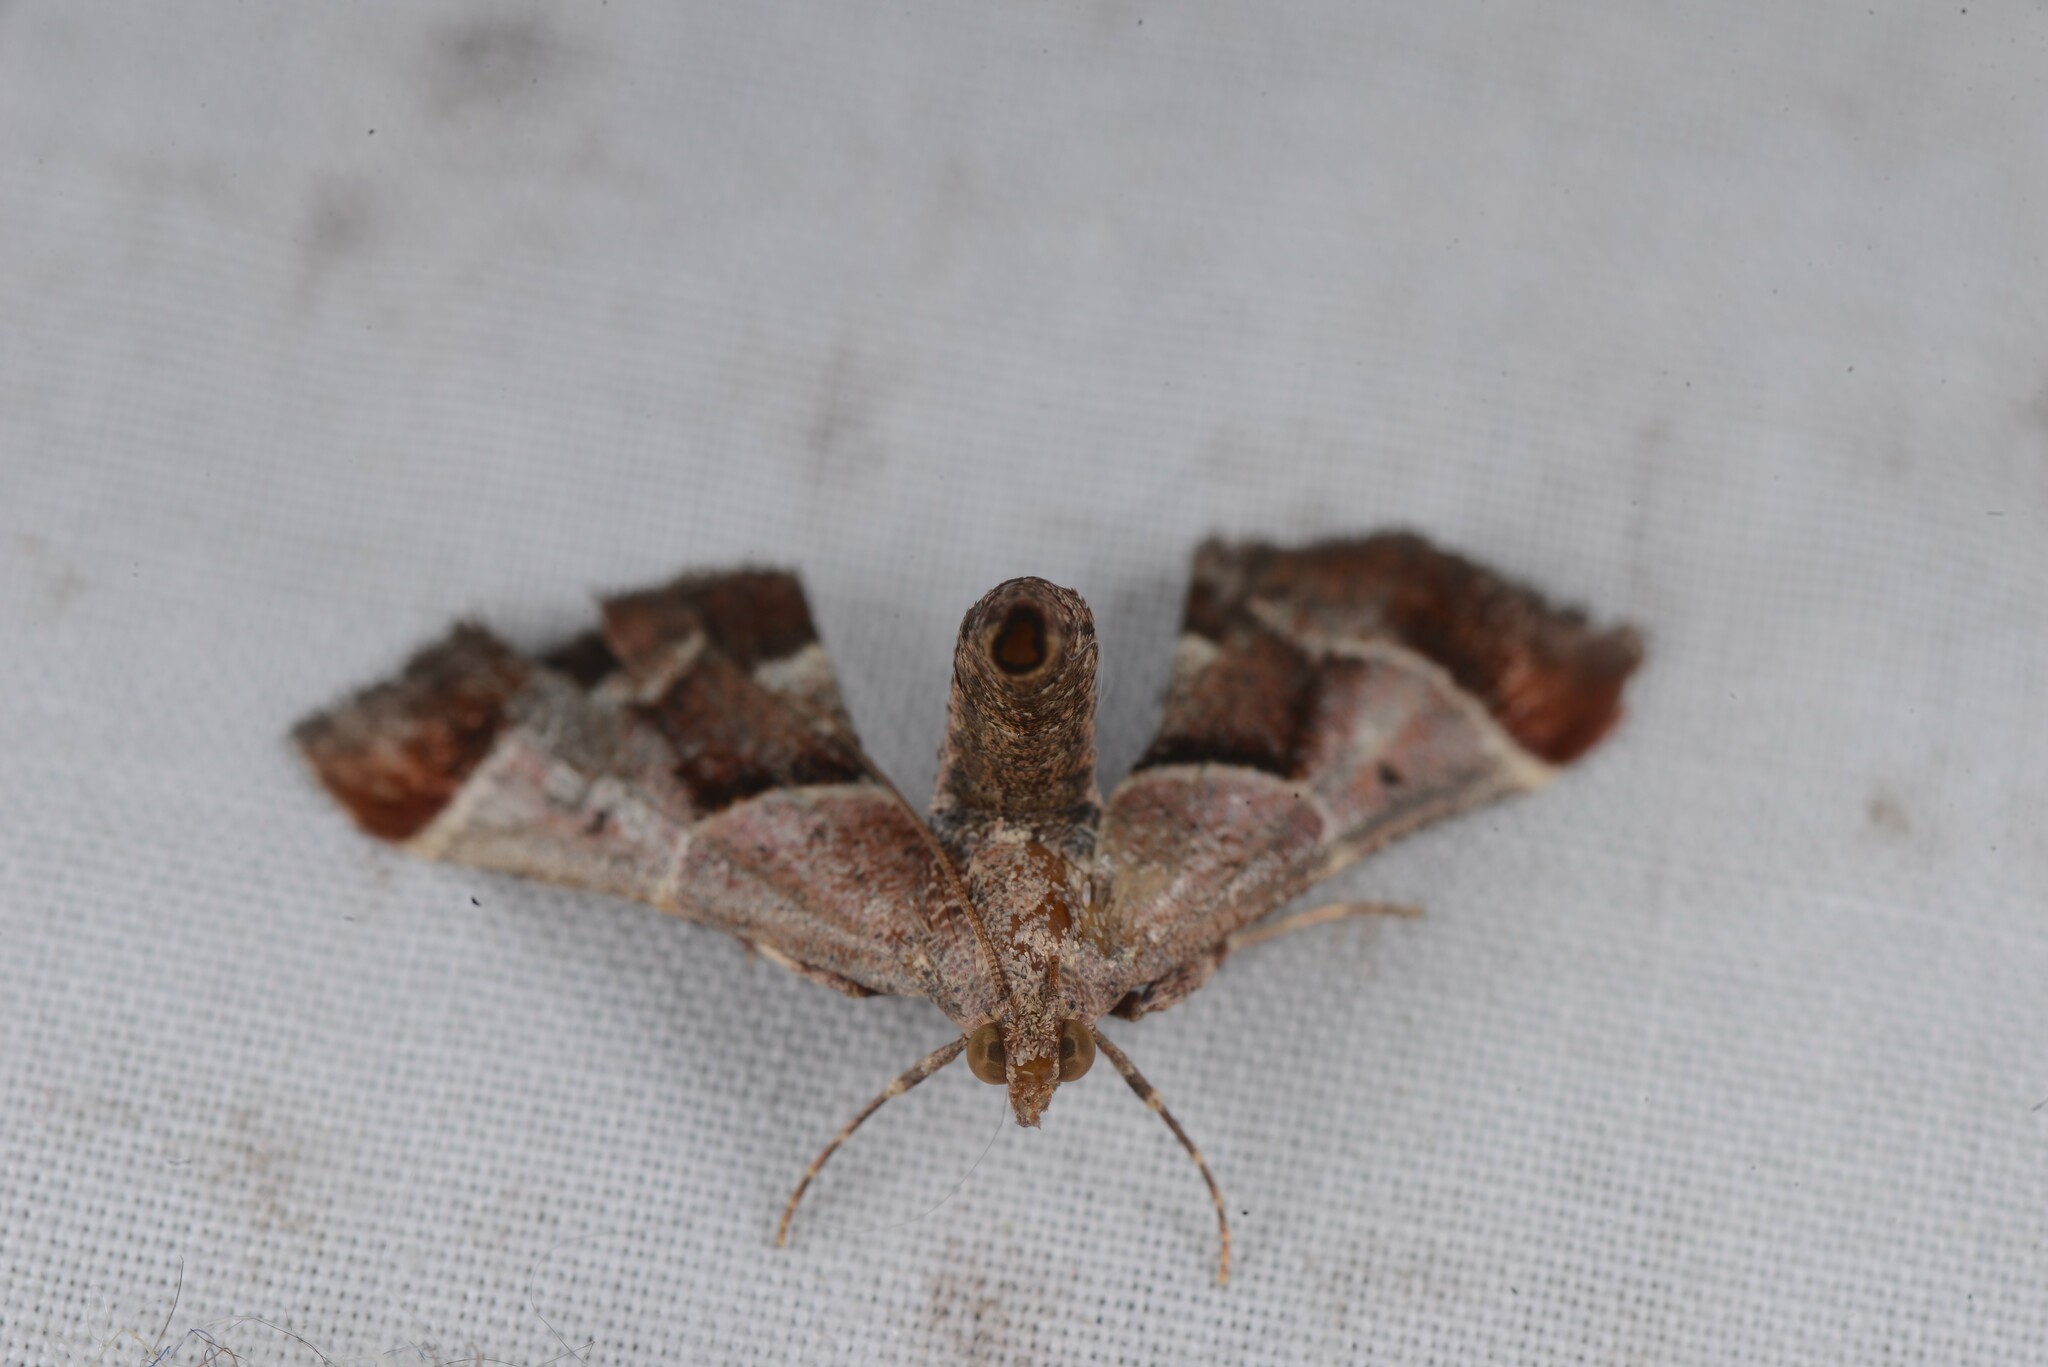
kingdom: Animalia
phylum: Arthropoda
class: Insecta
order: Lepidoptera
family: Pyralidae
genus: Gauna
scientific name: Gauna aegusalis
